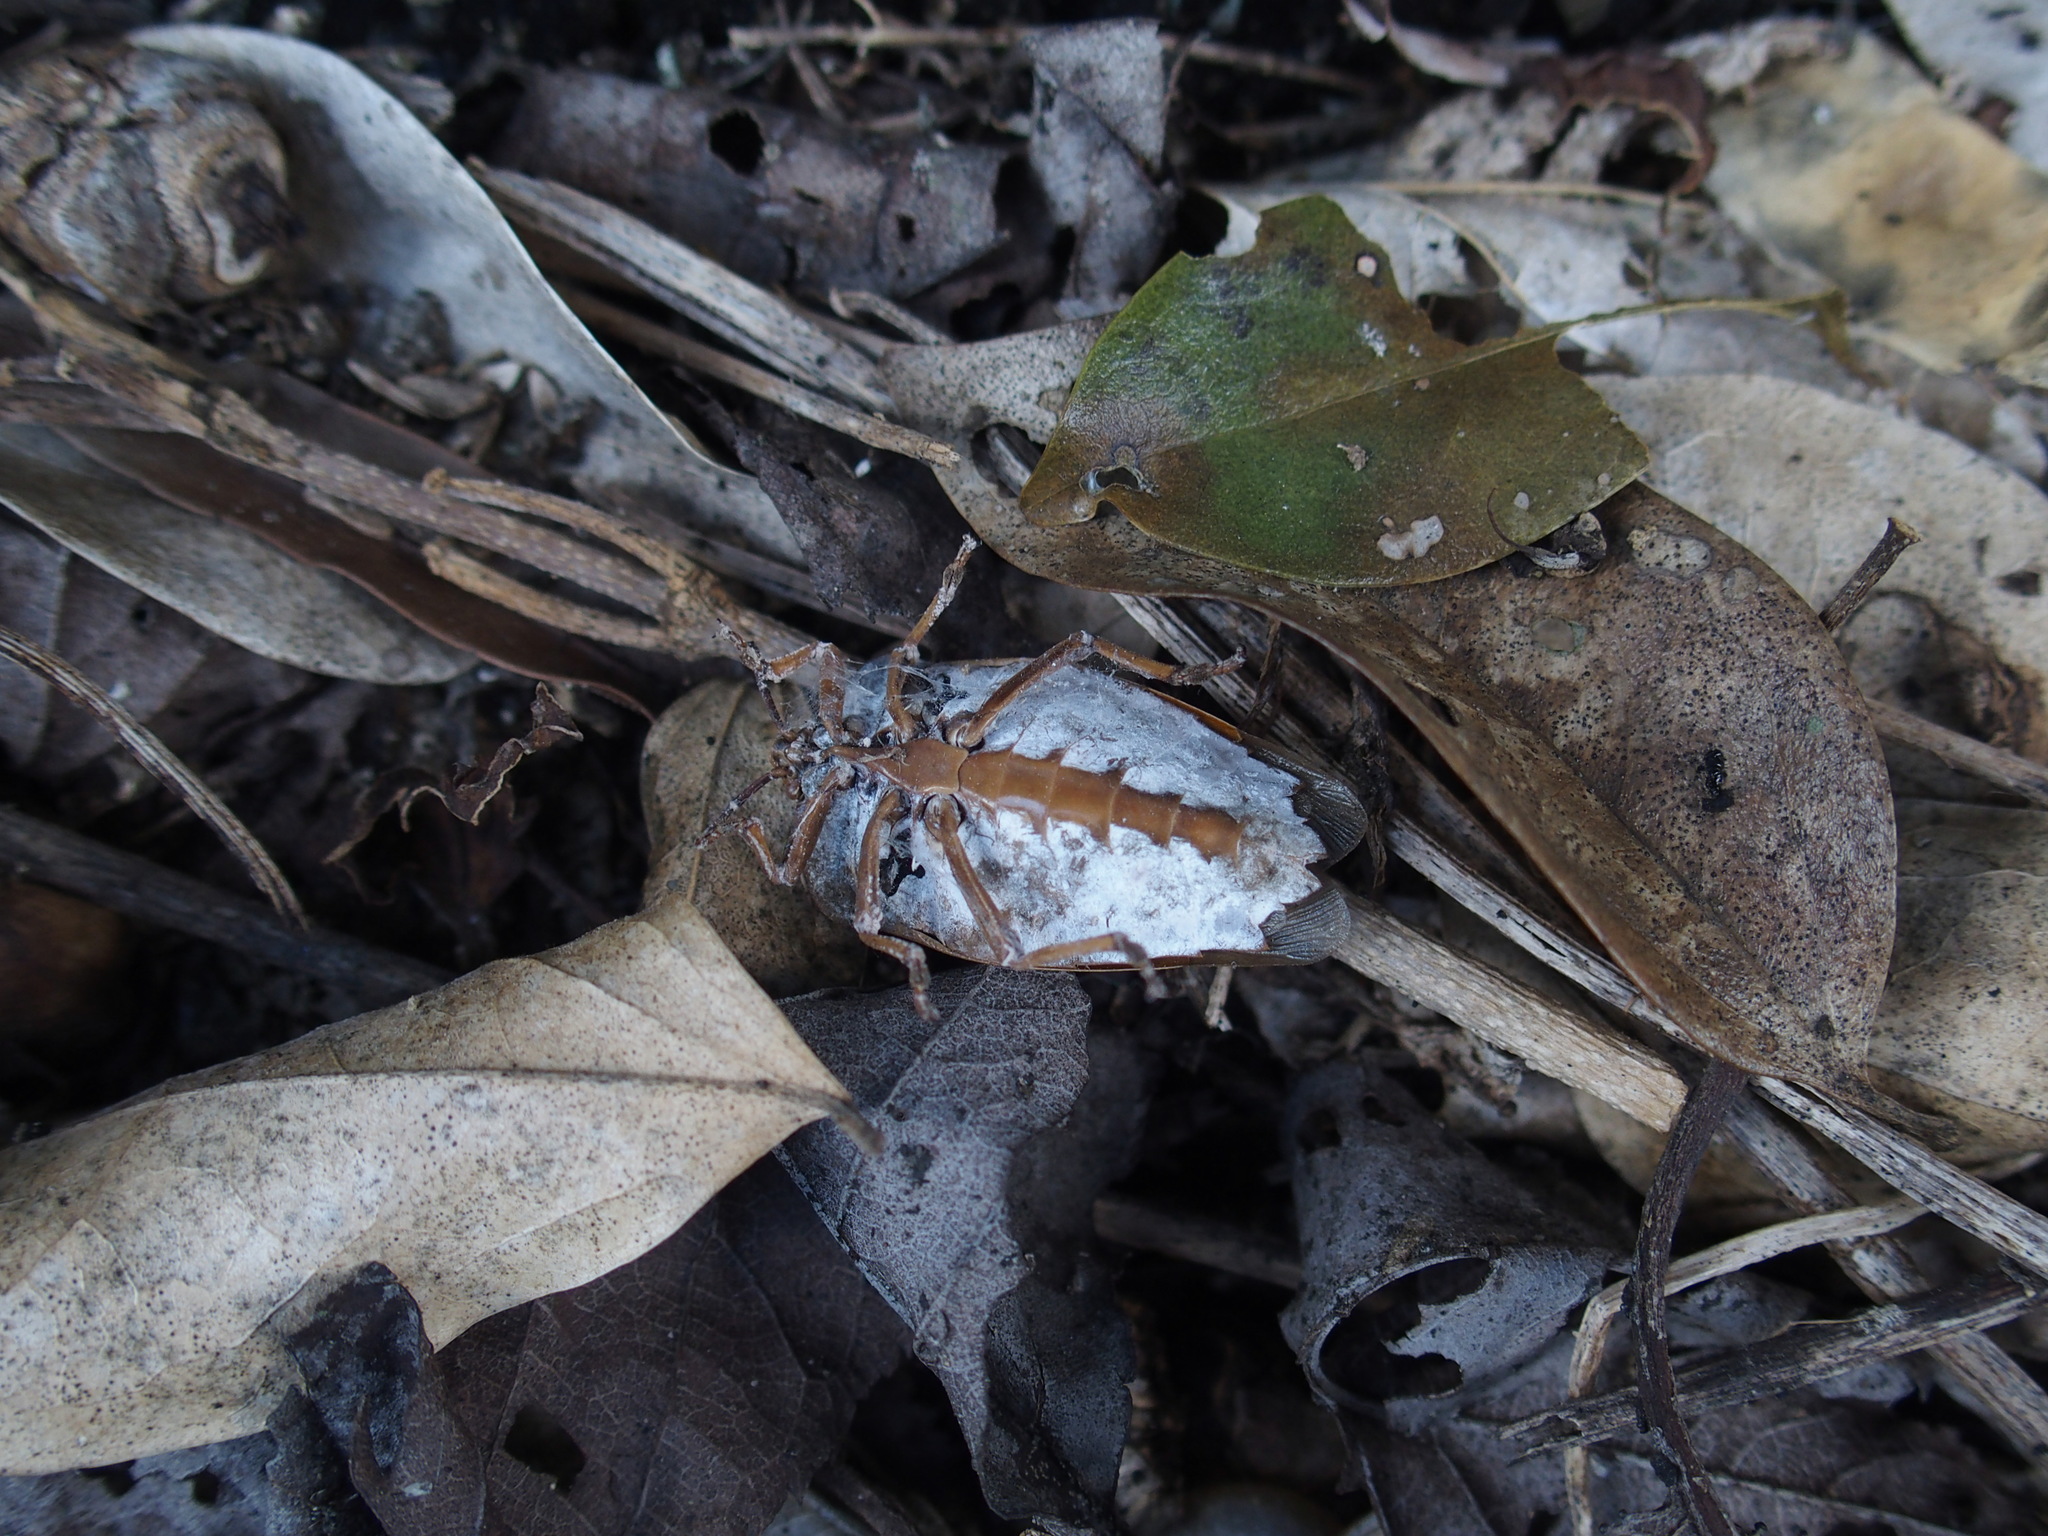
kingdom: Animalia
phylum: Arthropoda
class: Insecta
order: Hemiptera
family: Tessaratomidae
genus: Tessaratoma
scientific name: Tessaratoma papillosa
